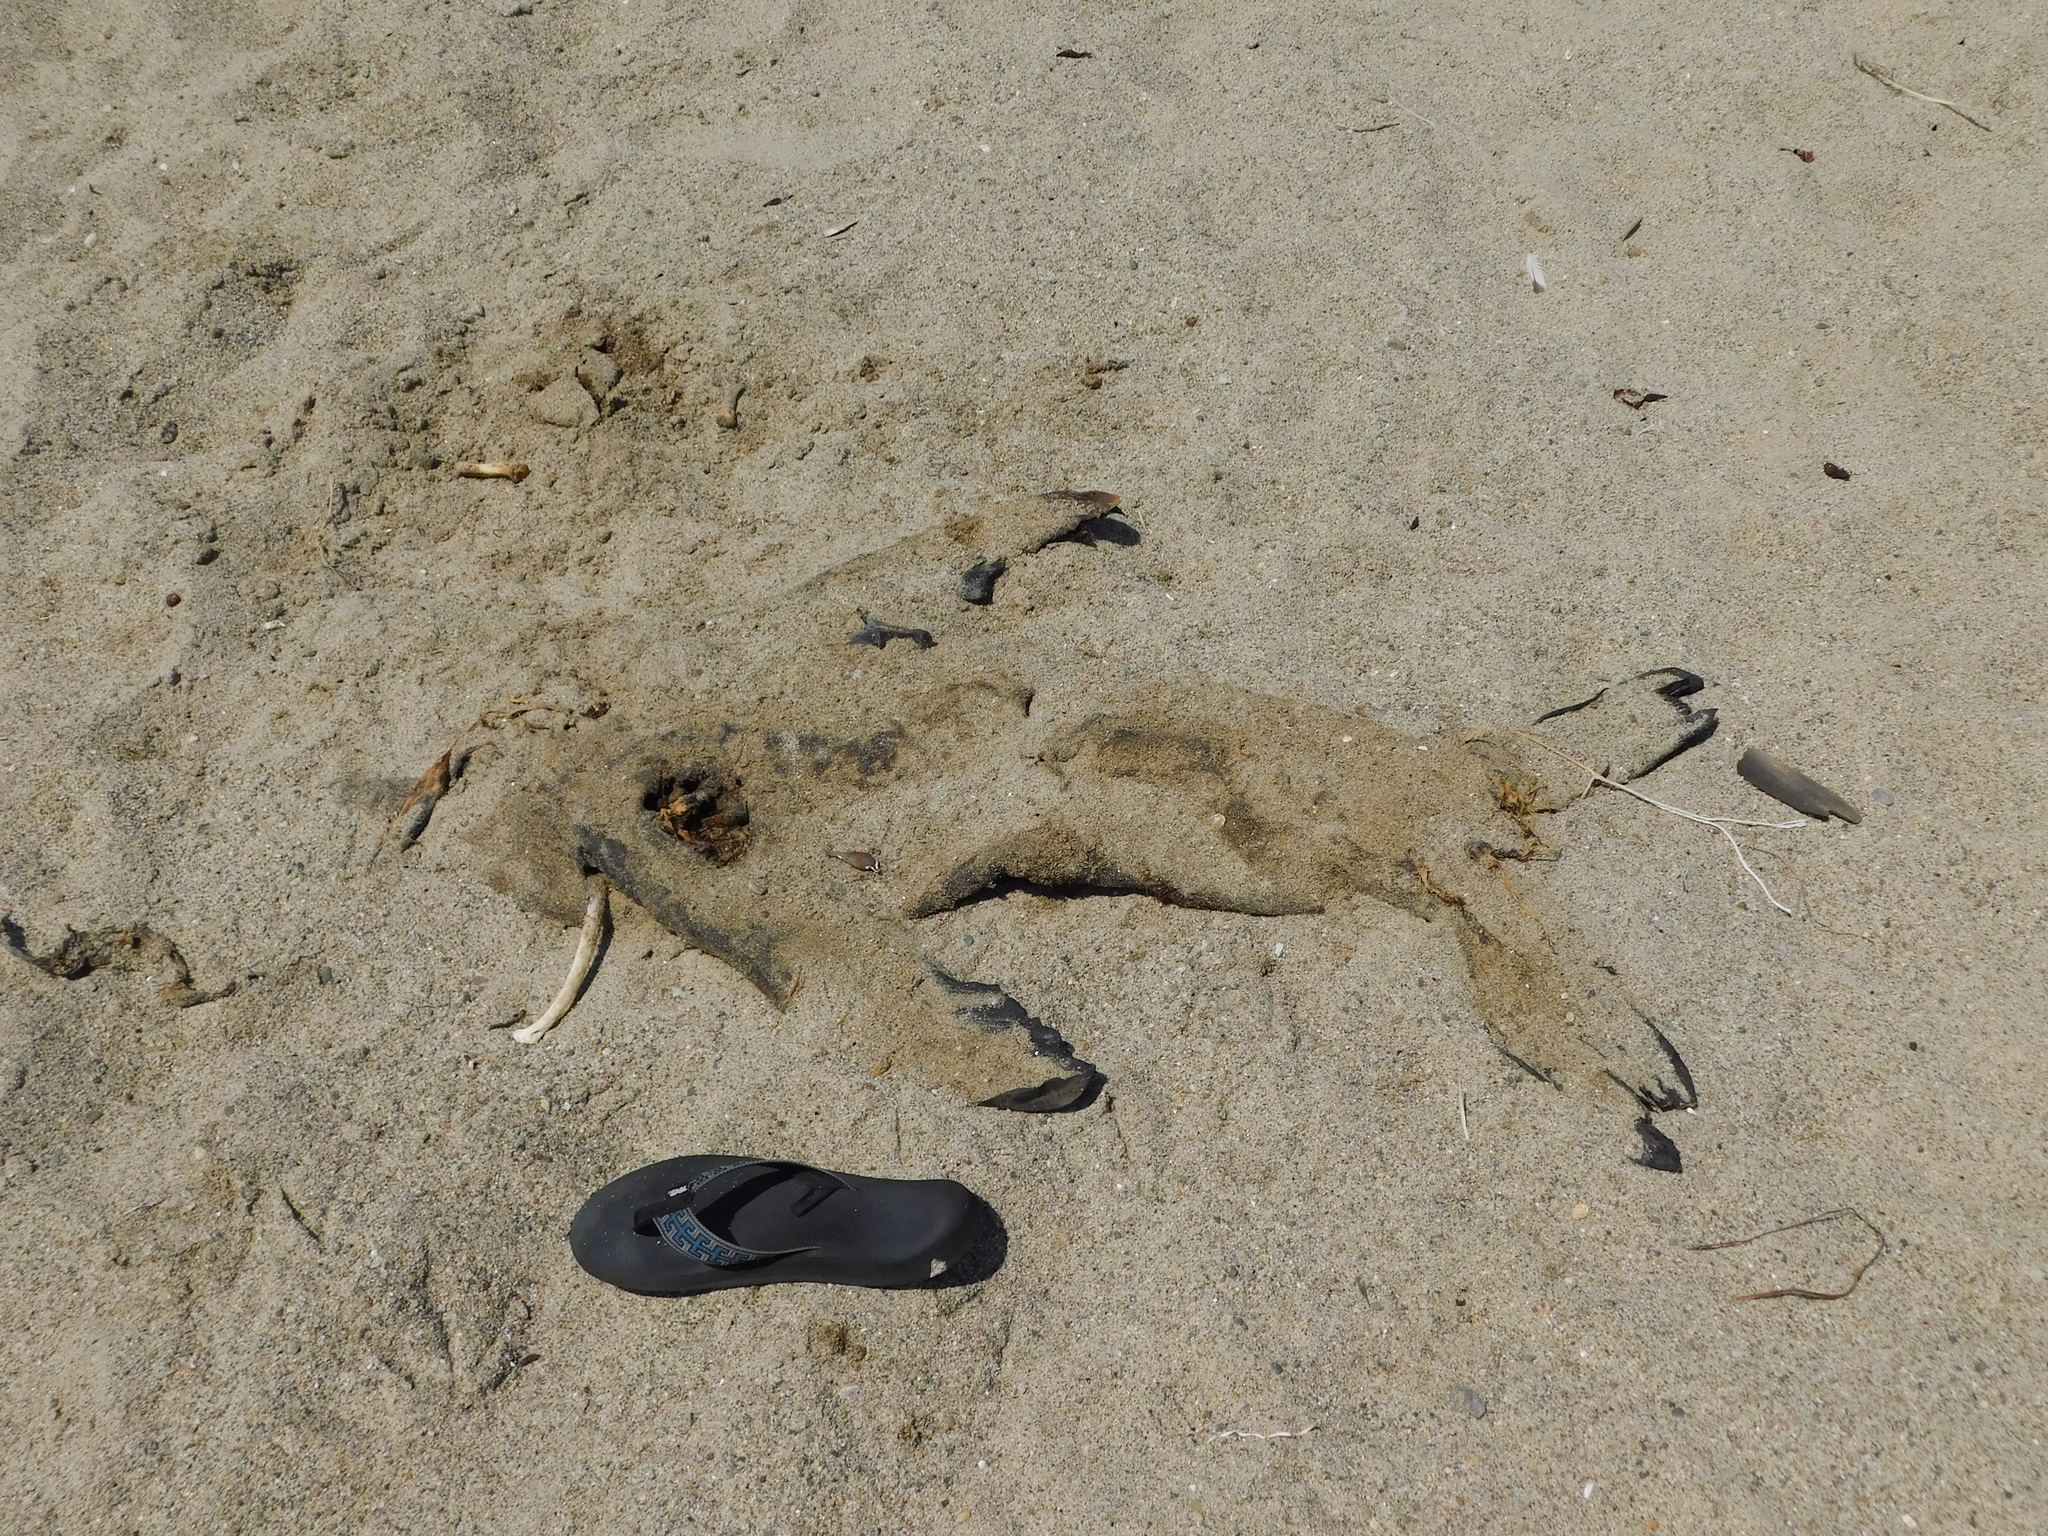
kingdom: Animalia
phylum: Chordata
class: Mammalia
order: Carnivora
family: Otariidae
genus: Zalophus
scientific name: Zalophus californianus
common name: California sea lion
